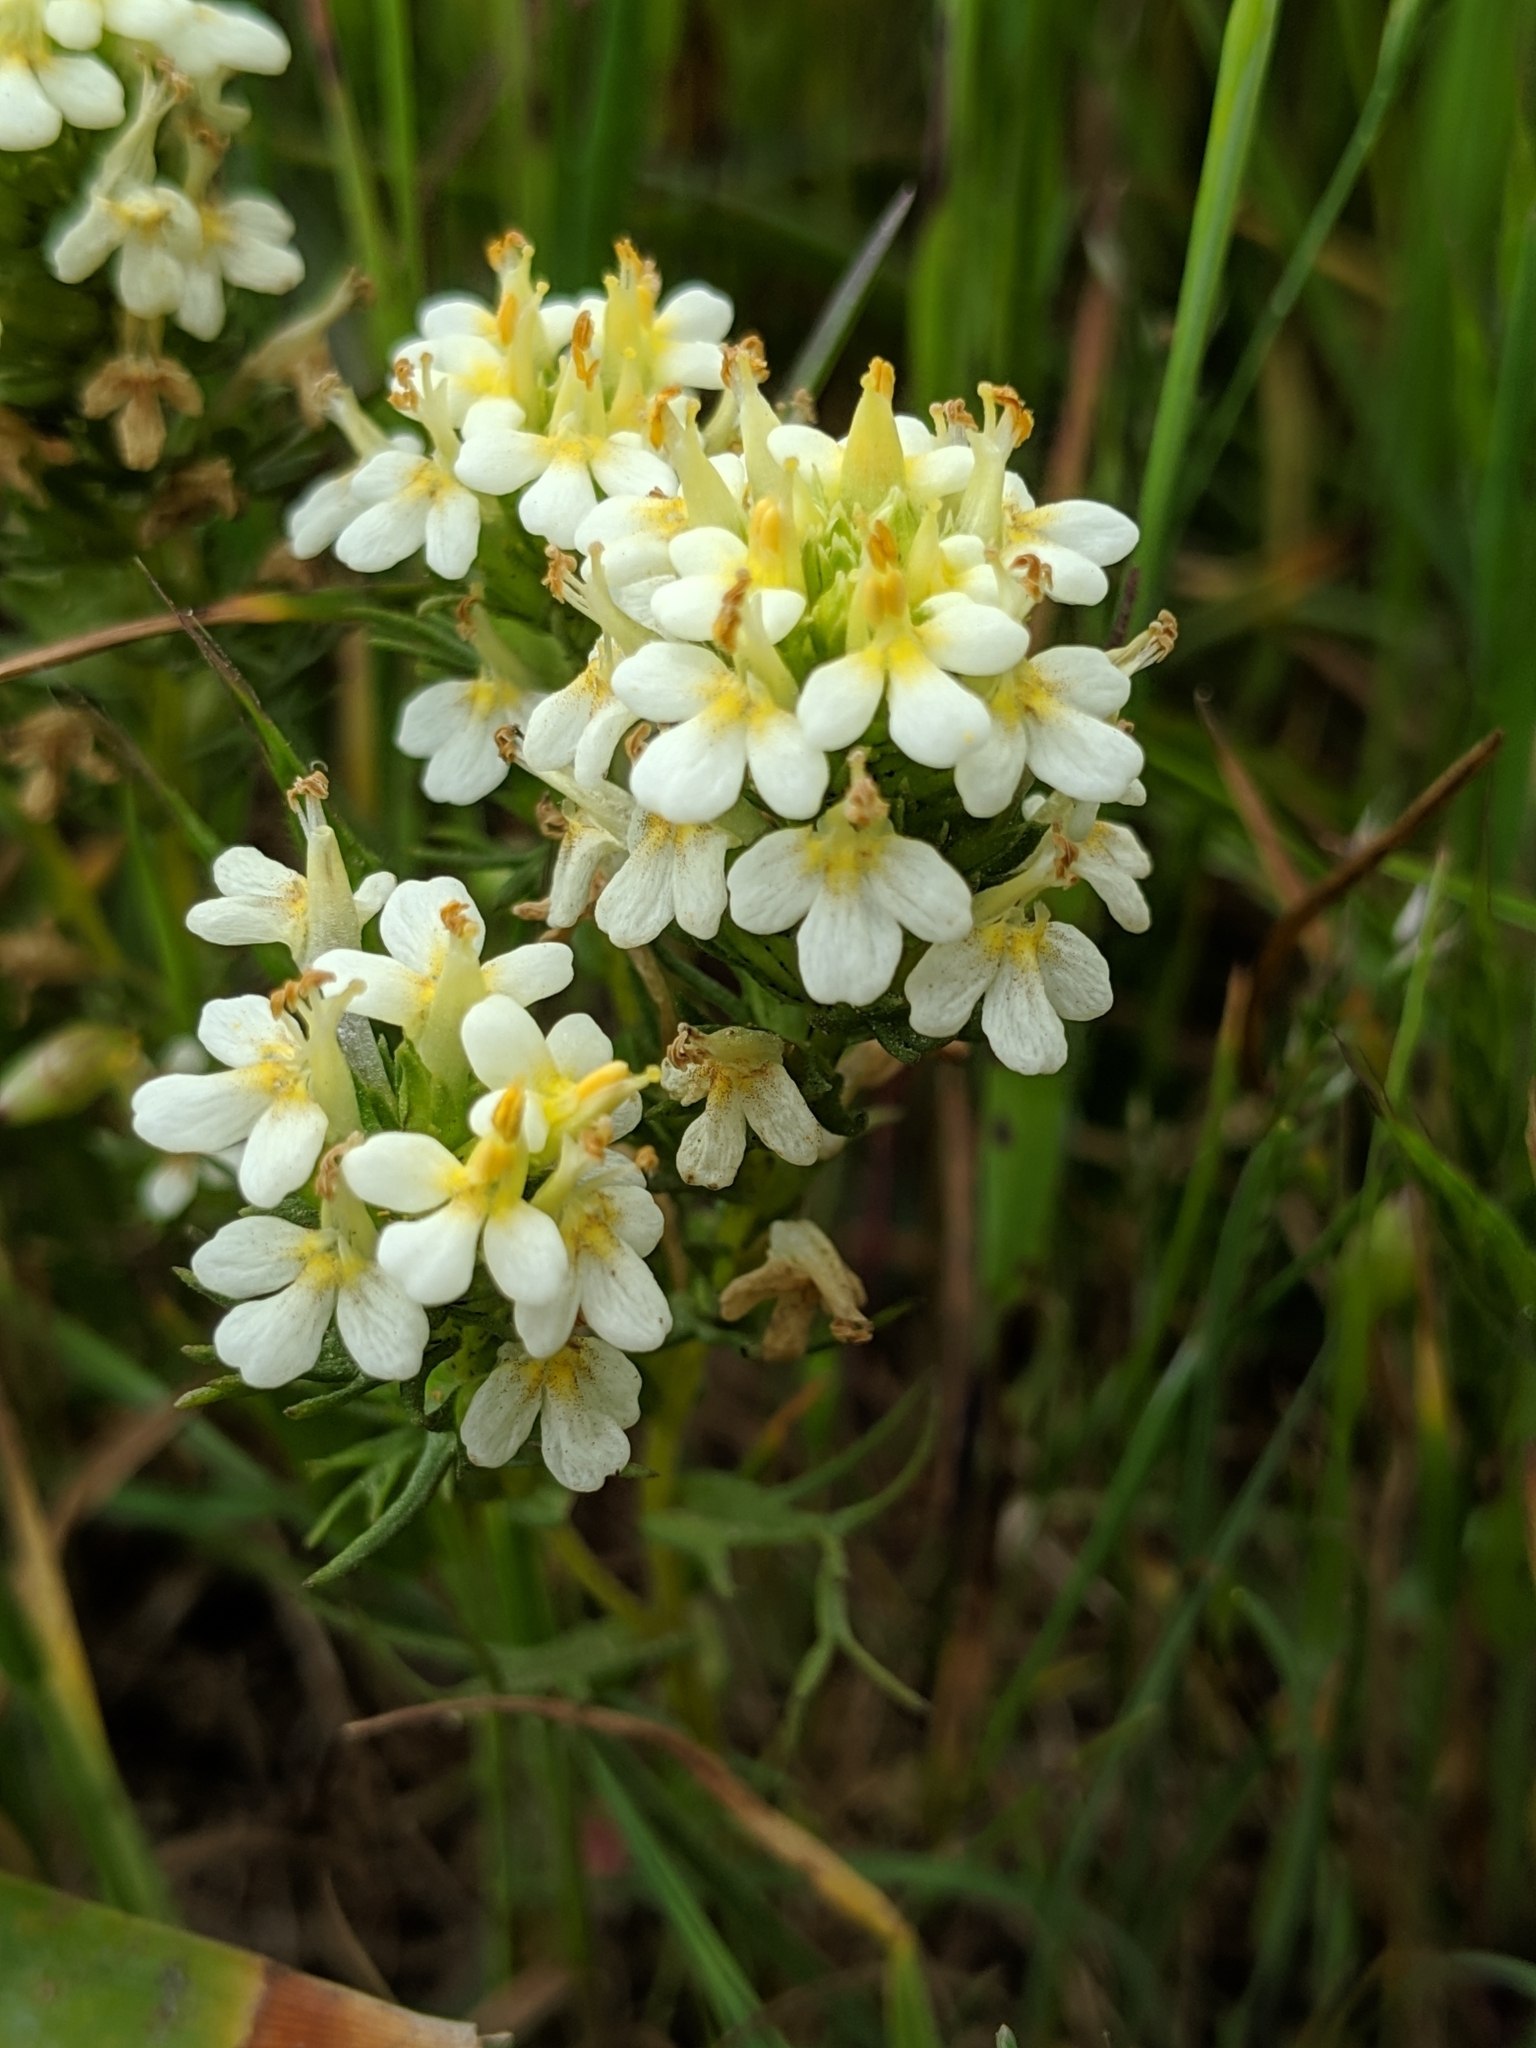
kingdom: Plantae
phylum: Tracheophyta
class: Magnoliopsida
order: Lamiales
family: Orobanchaceae
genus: Triphysaria
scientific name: Triphysaria floribunda
